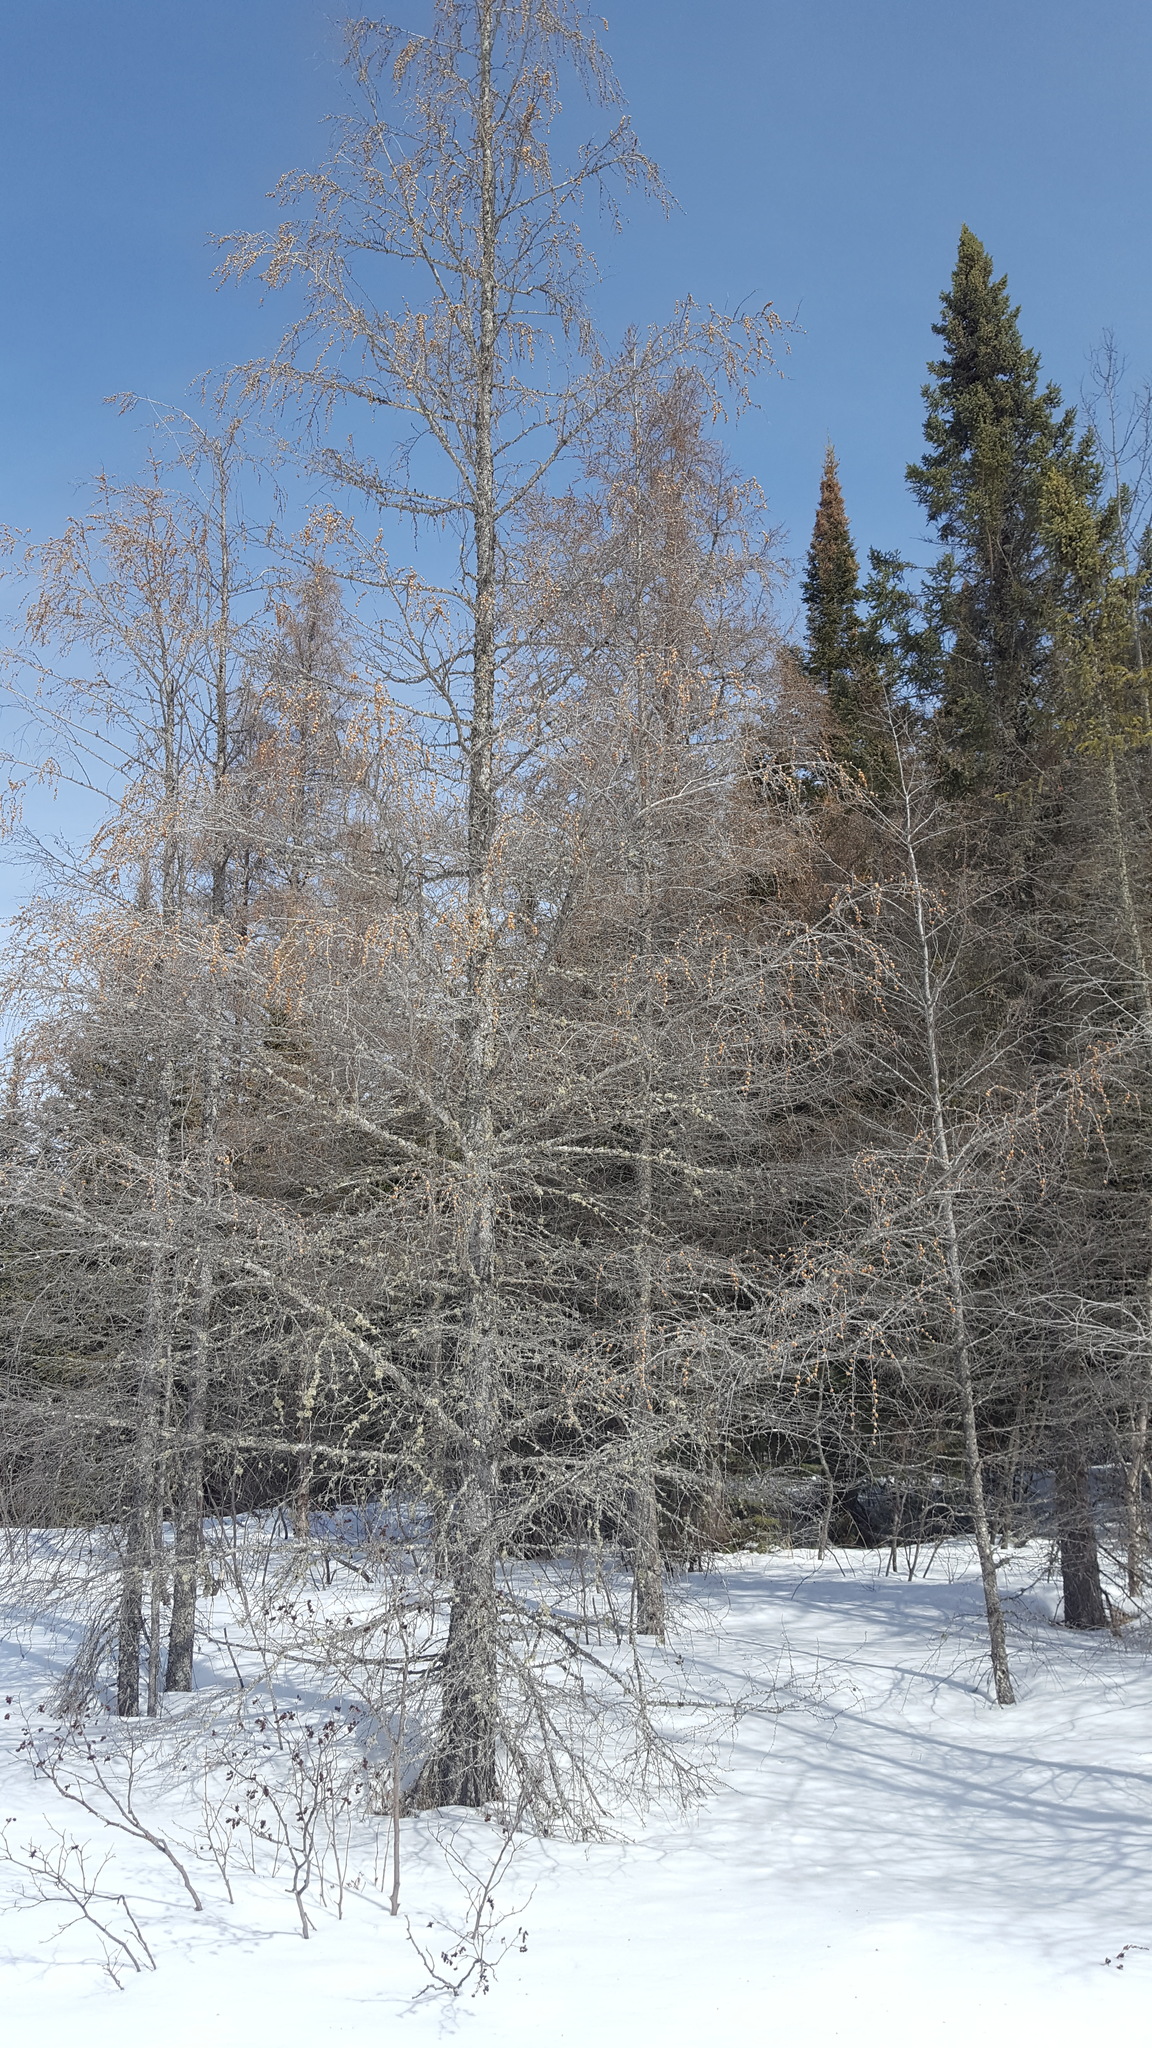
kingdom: Plantae
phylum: Tracheophyta
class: Pinopsida
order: Pinales
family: Pinaceae
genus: Larix
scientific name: Larix laricina
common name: American larch
